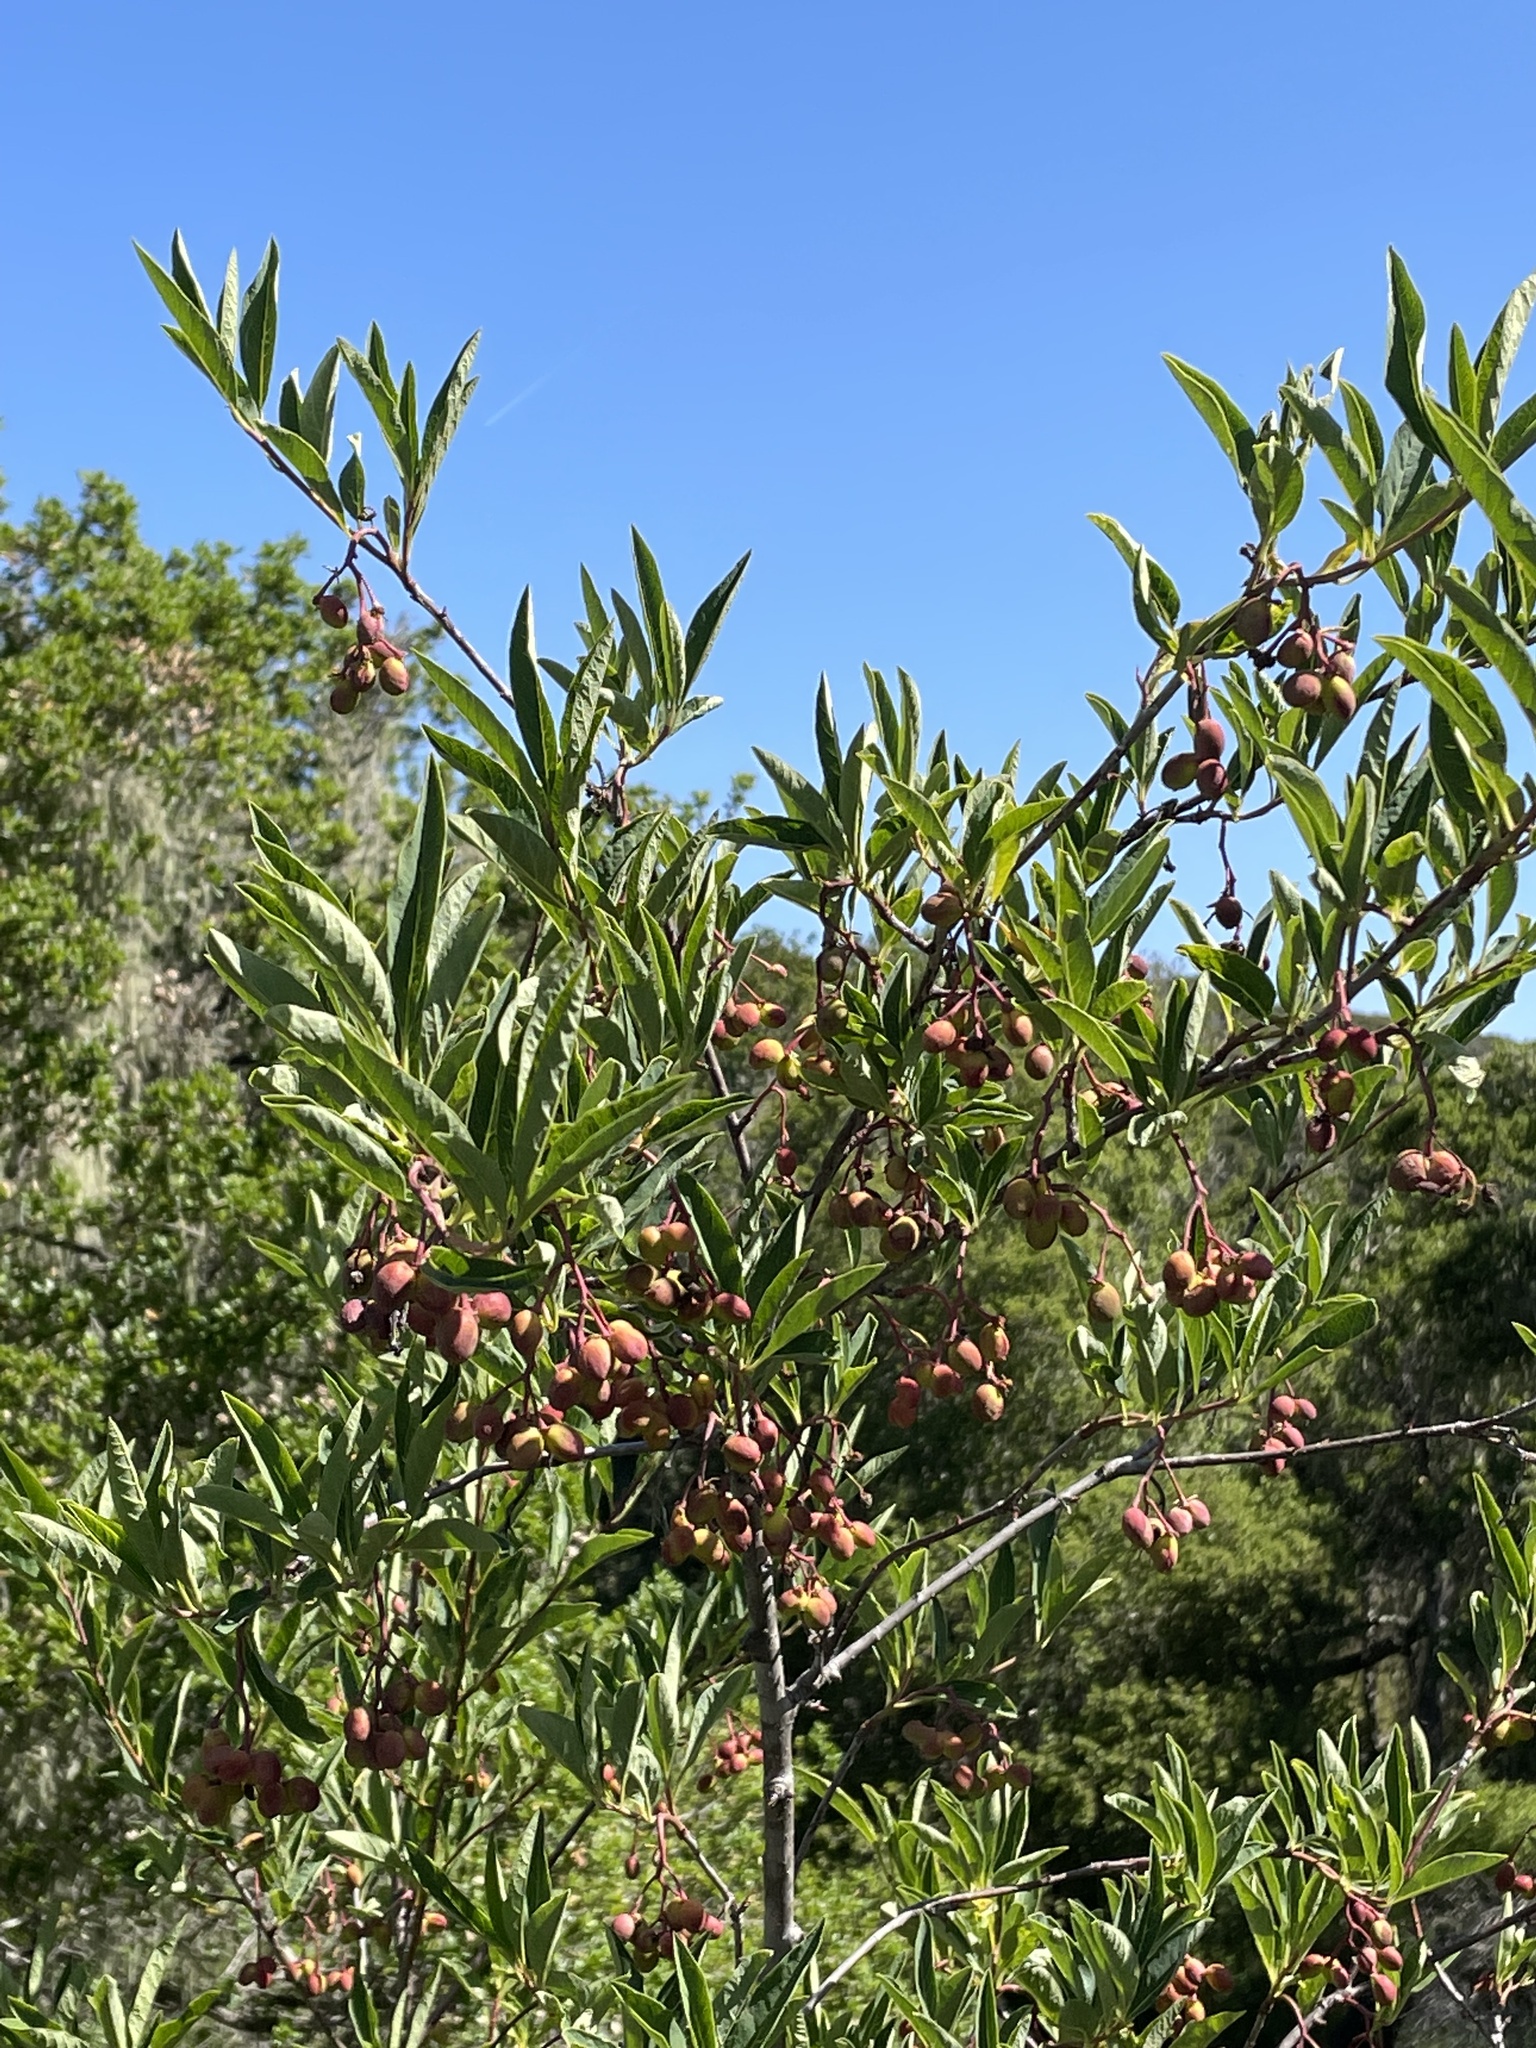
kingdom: Plantae
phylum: Tracheophyta
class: Magnoliopsida
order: Rosales
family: Rosaceae
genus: Oemleria
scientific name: Oemleria cerasiformis
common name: Osoberry
